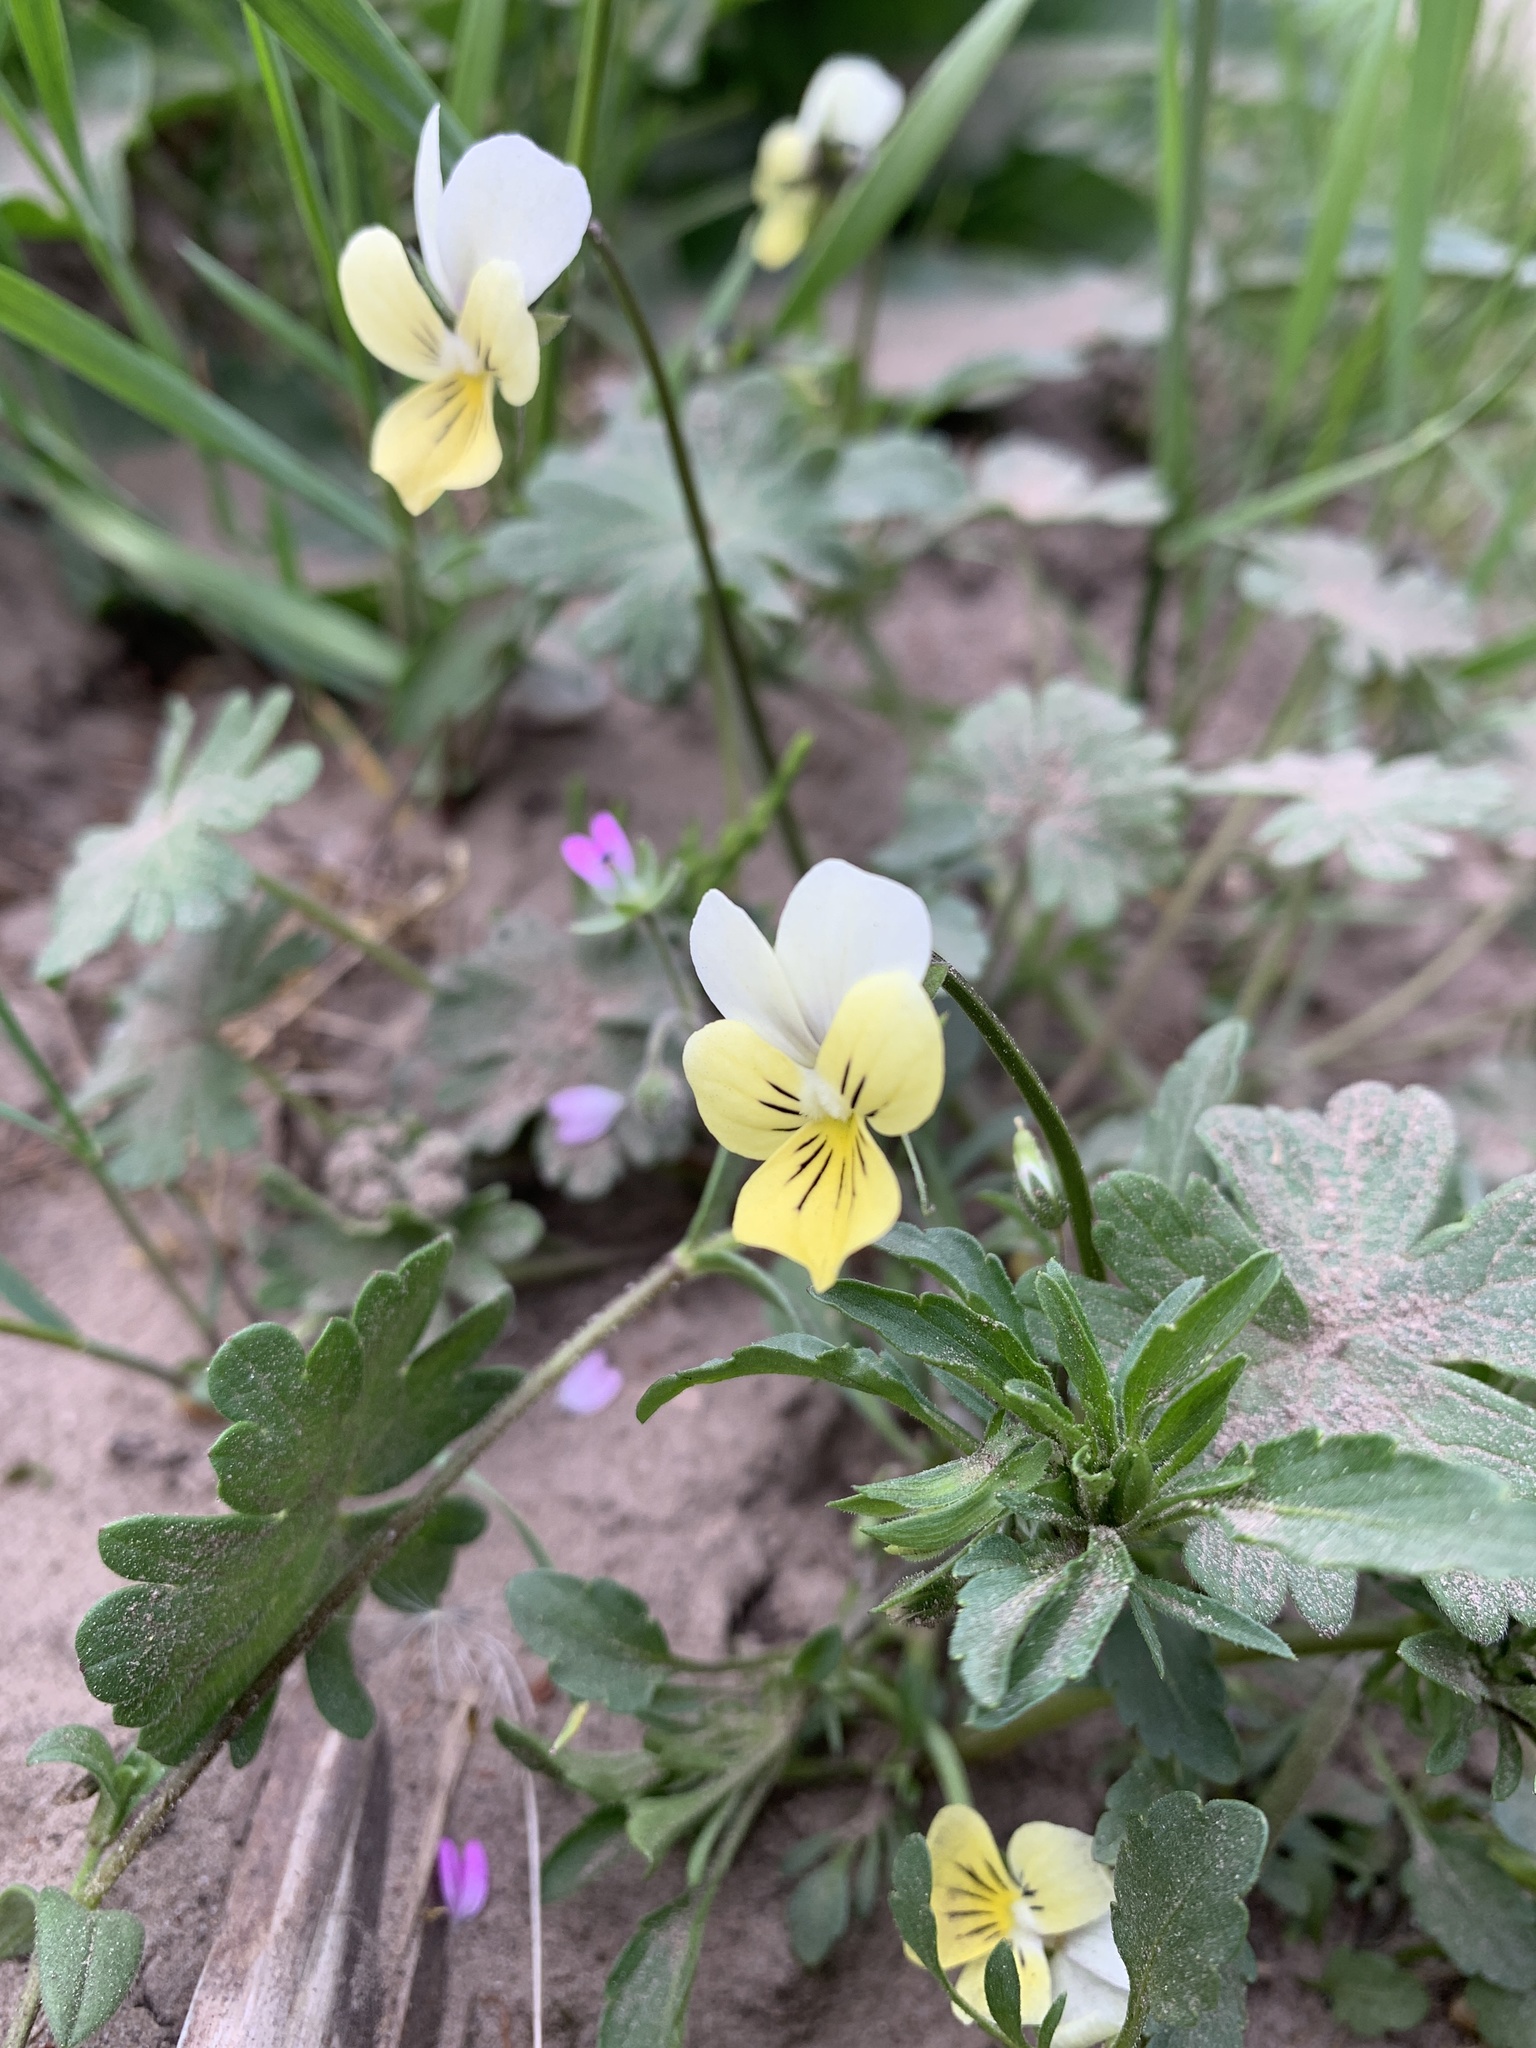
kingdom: Plantae
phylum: Tracheophyta
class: Magnoliopsida
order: Malpighiales
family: Violaceae
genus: Viola
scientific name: Viola arvensis
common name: Field pansy
